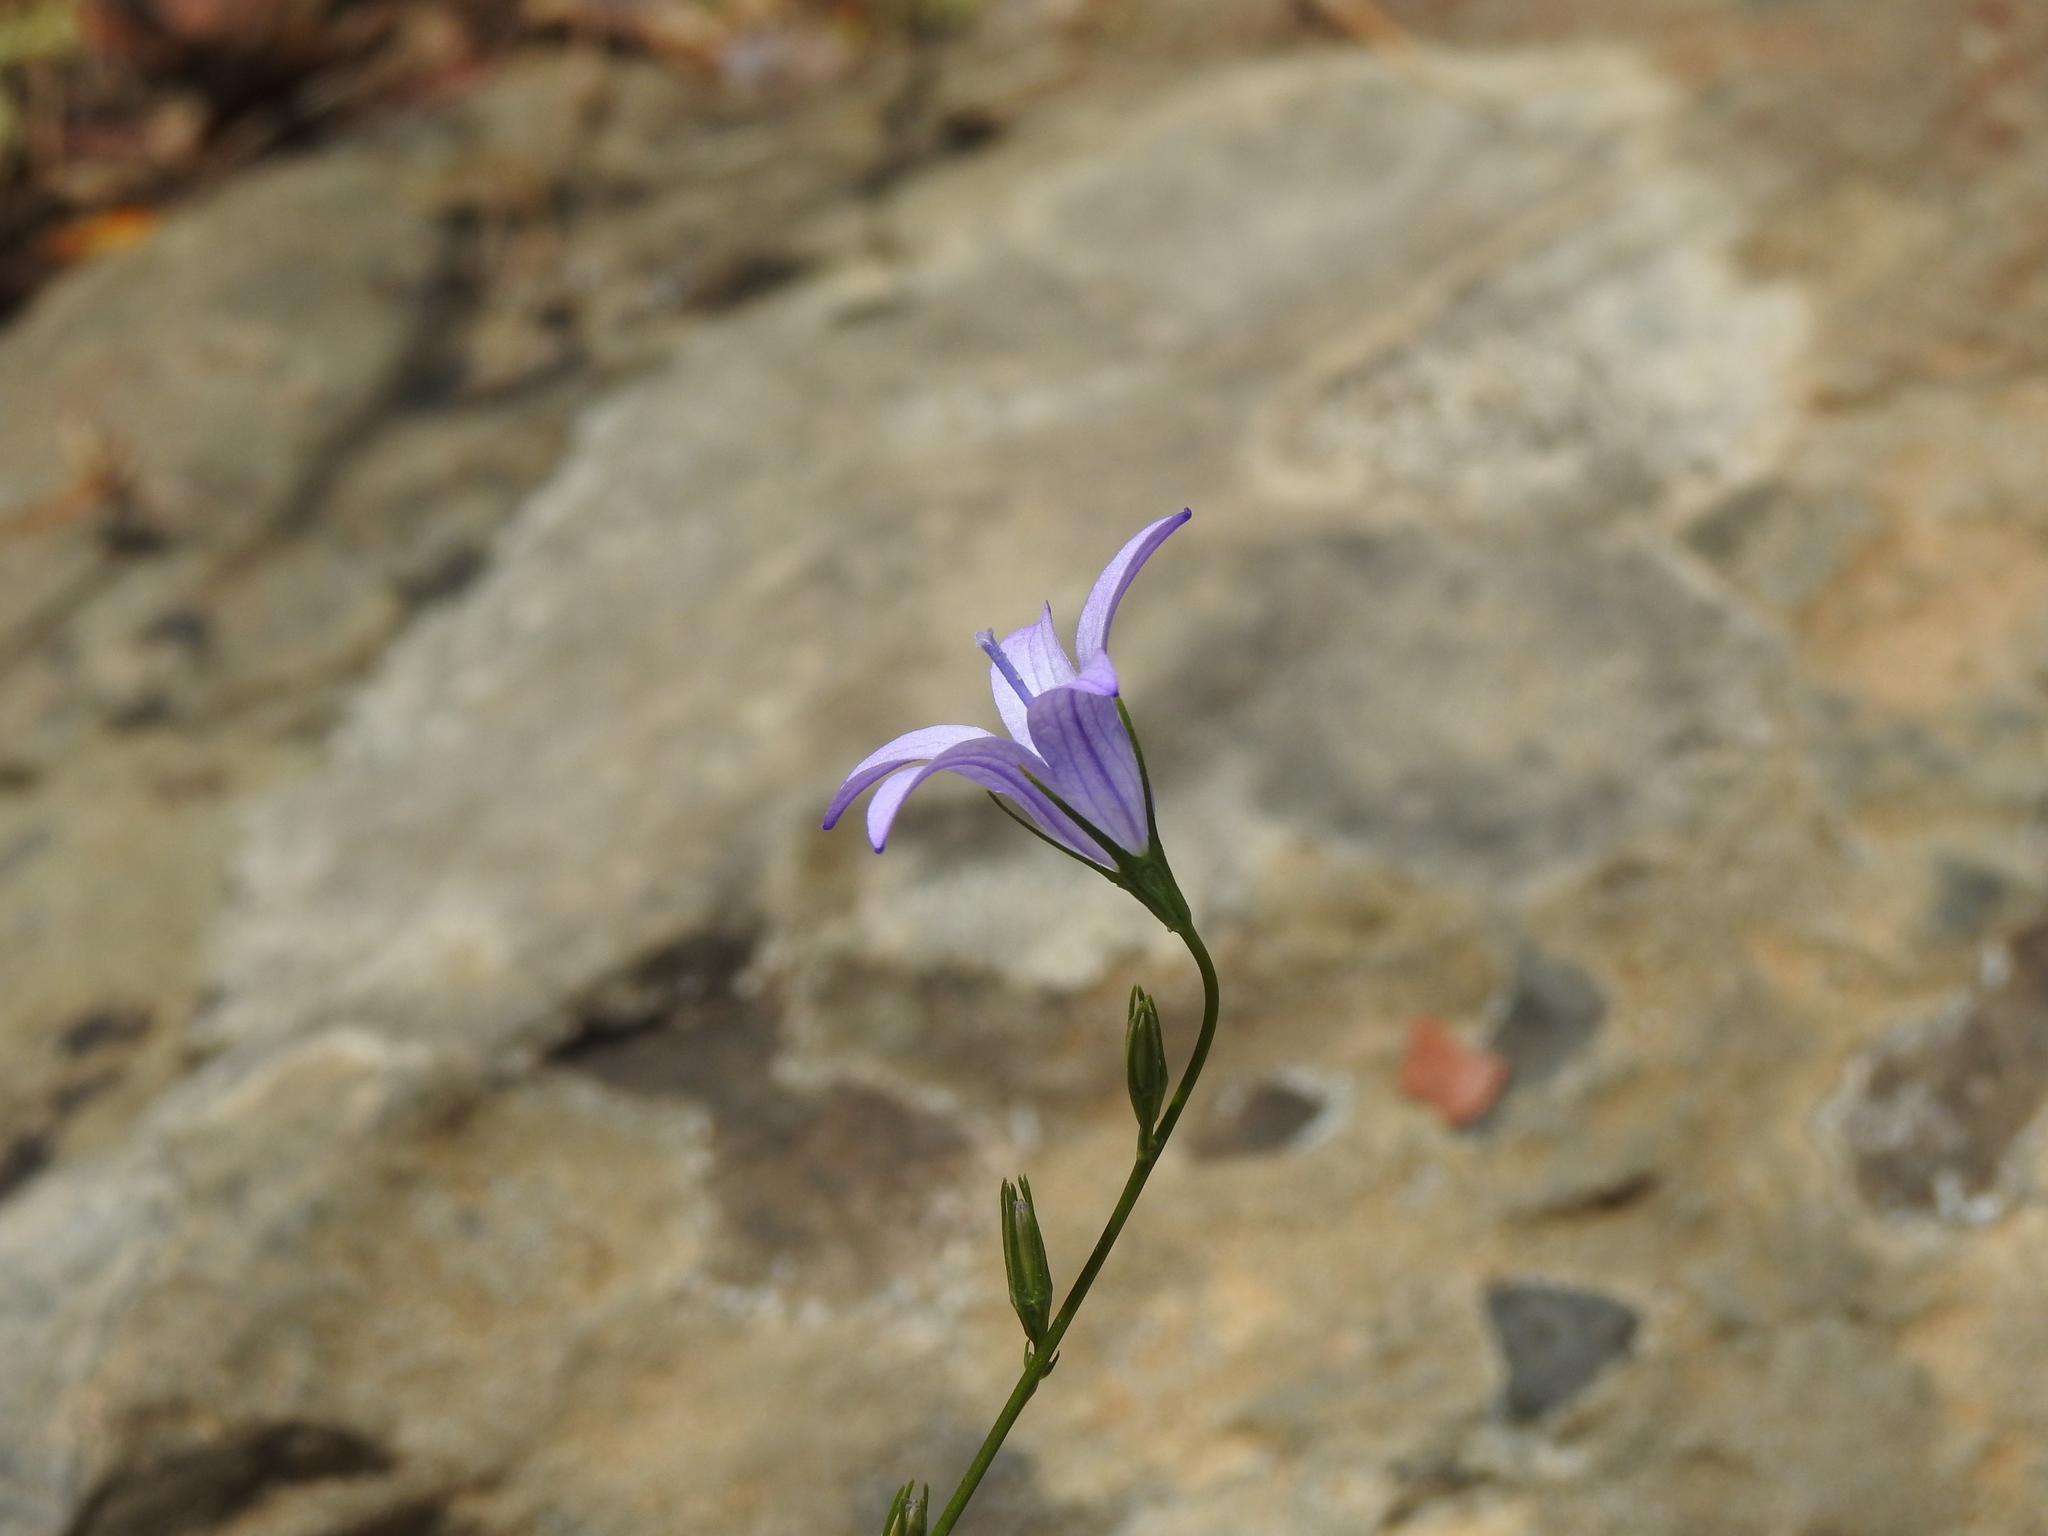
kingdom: Plantae
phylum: Tracheophyta
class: Magnoliopsida
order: Asterales
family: Campanulaceae
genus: Campanula
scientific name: Campanula rapunculus
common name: Rampion bellflower
